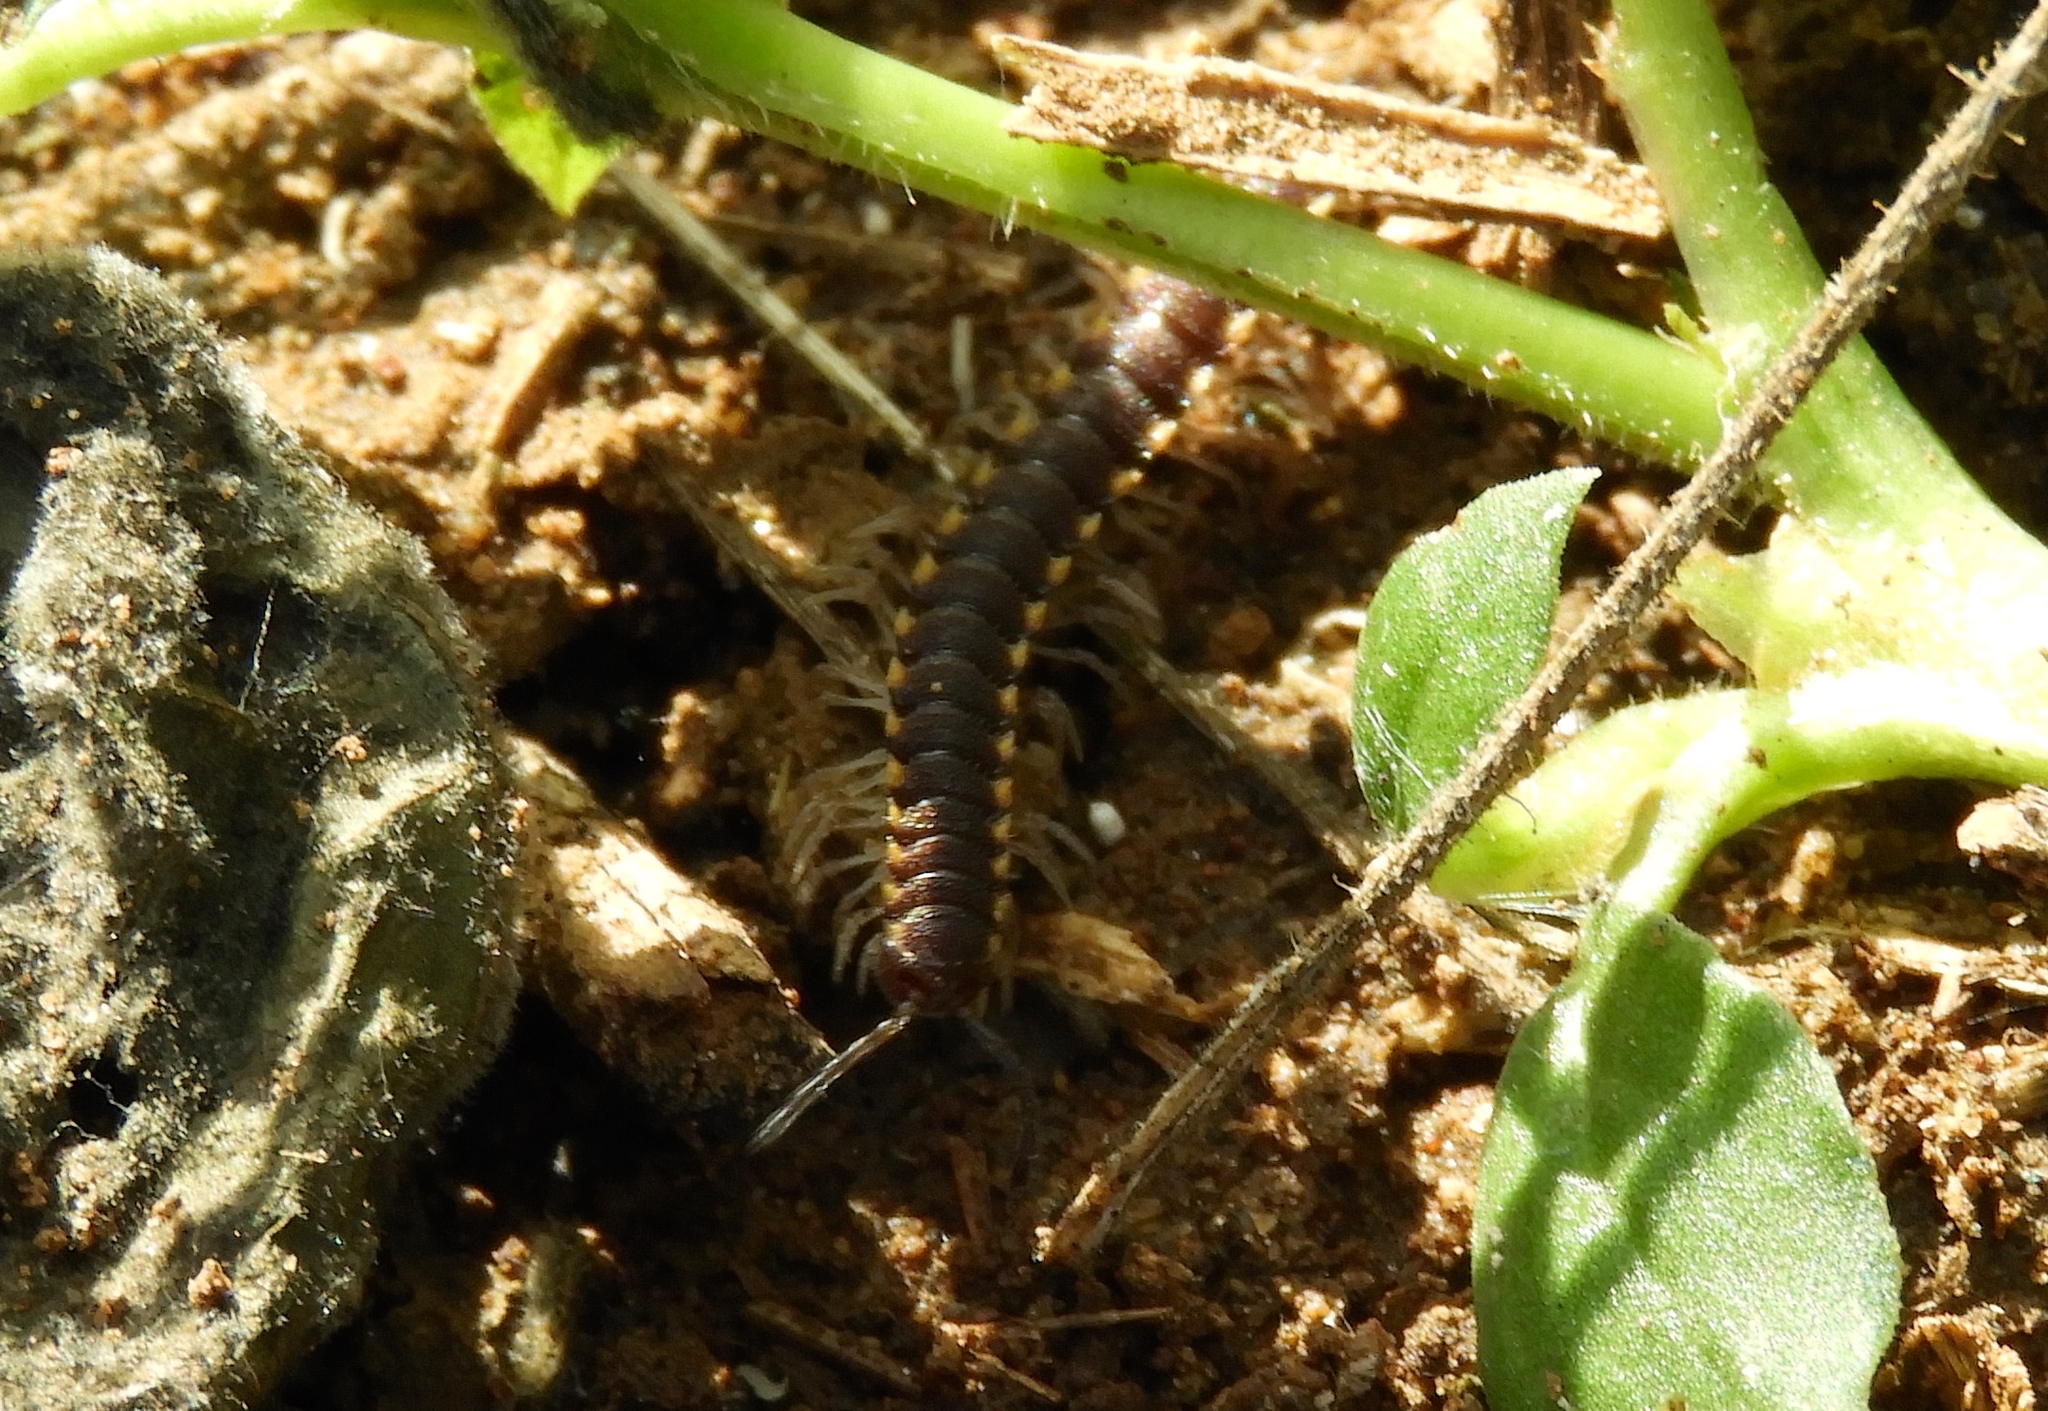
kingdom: Animalia
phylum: Arthropoda
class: Diplopoda
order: Polydesmida
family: Paradoxosomatidae
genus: Chondromorpha
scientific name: Chondromorpha xanthotricha
